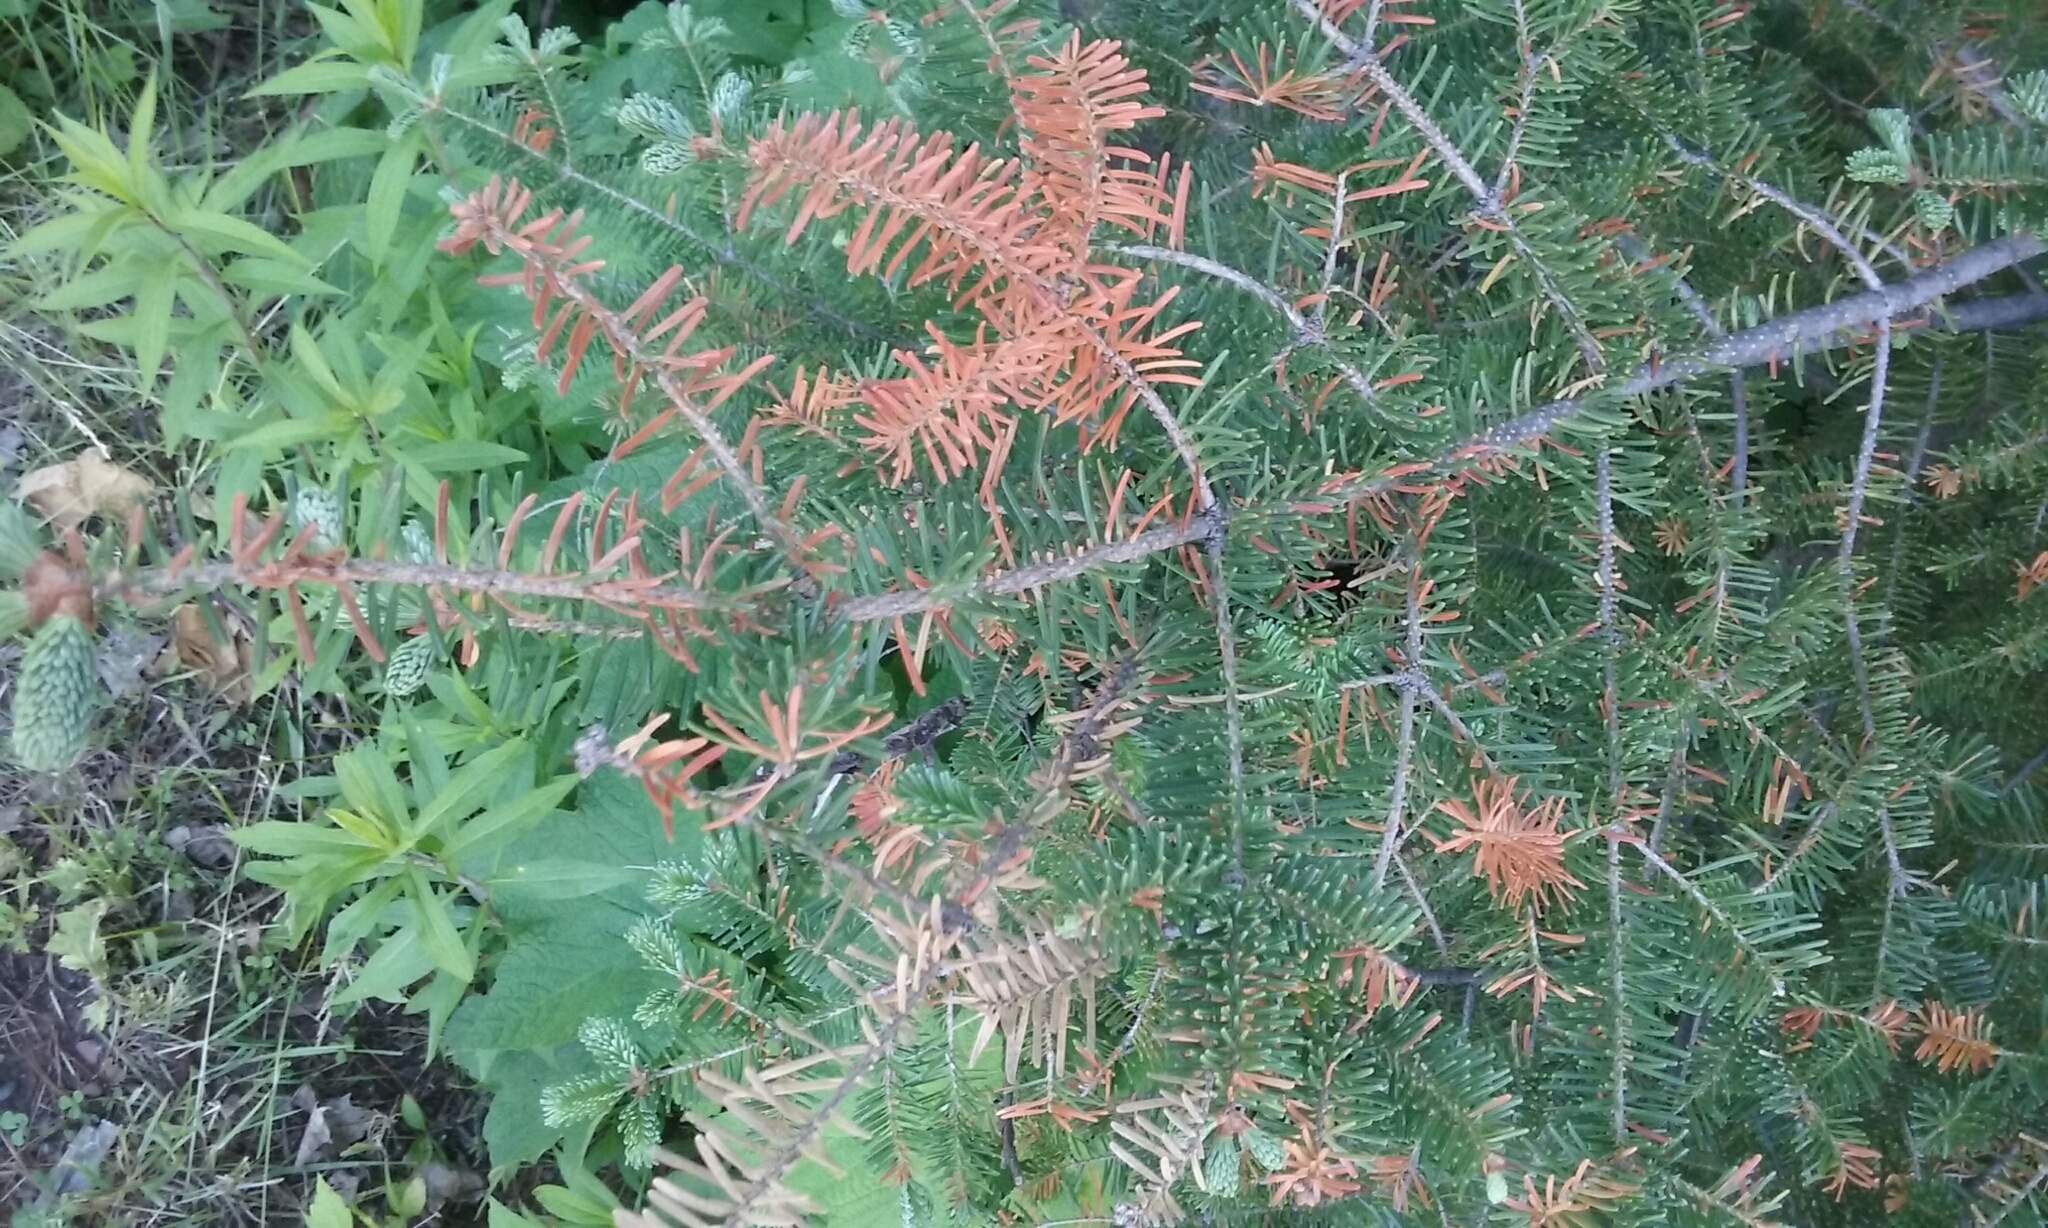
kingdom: Plantae
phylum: Tracheophyta
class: Pinopsida
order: Pinales
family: Pinaceae
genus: Abies
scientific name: Abies balsamea
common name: Balsam fir
